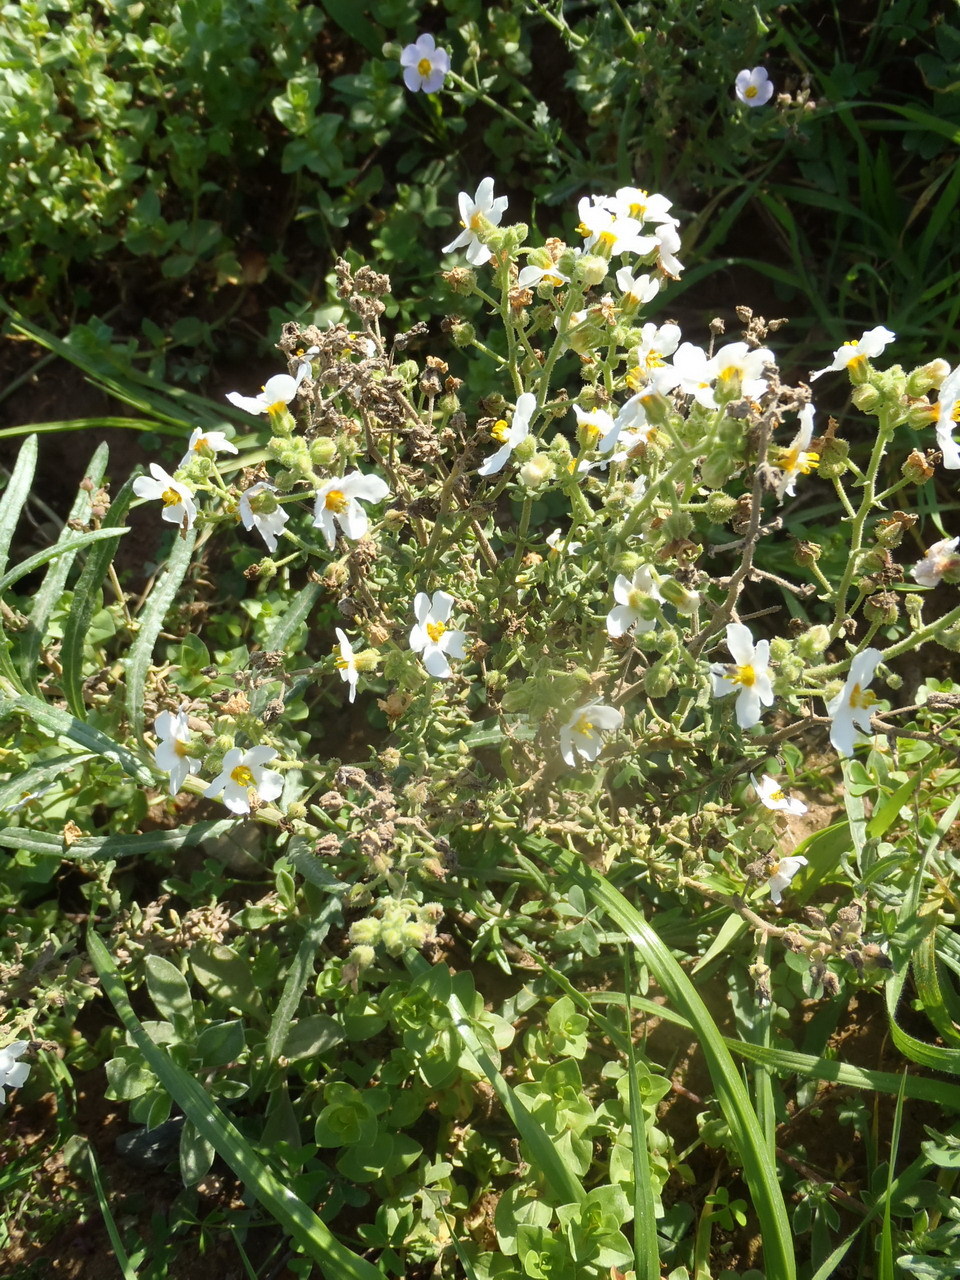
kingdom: Plantae
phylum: Tracheophyta
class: Magnoliopsida
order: Lamiales
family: Scrophulariaceae
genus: Chaenostoma
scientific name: Chaenostoma polyanthum
